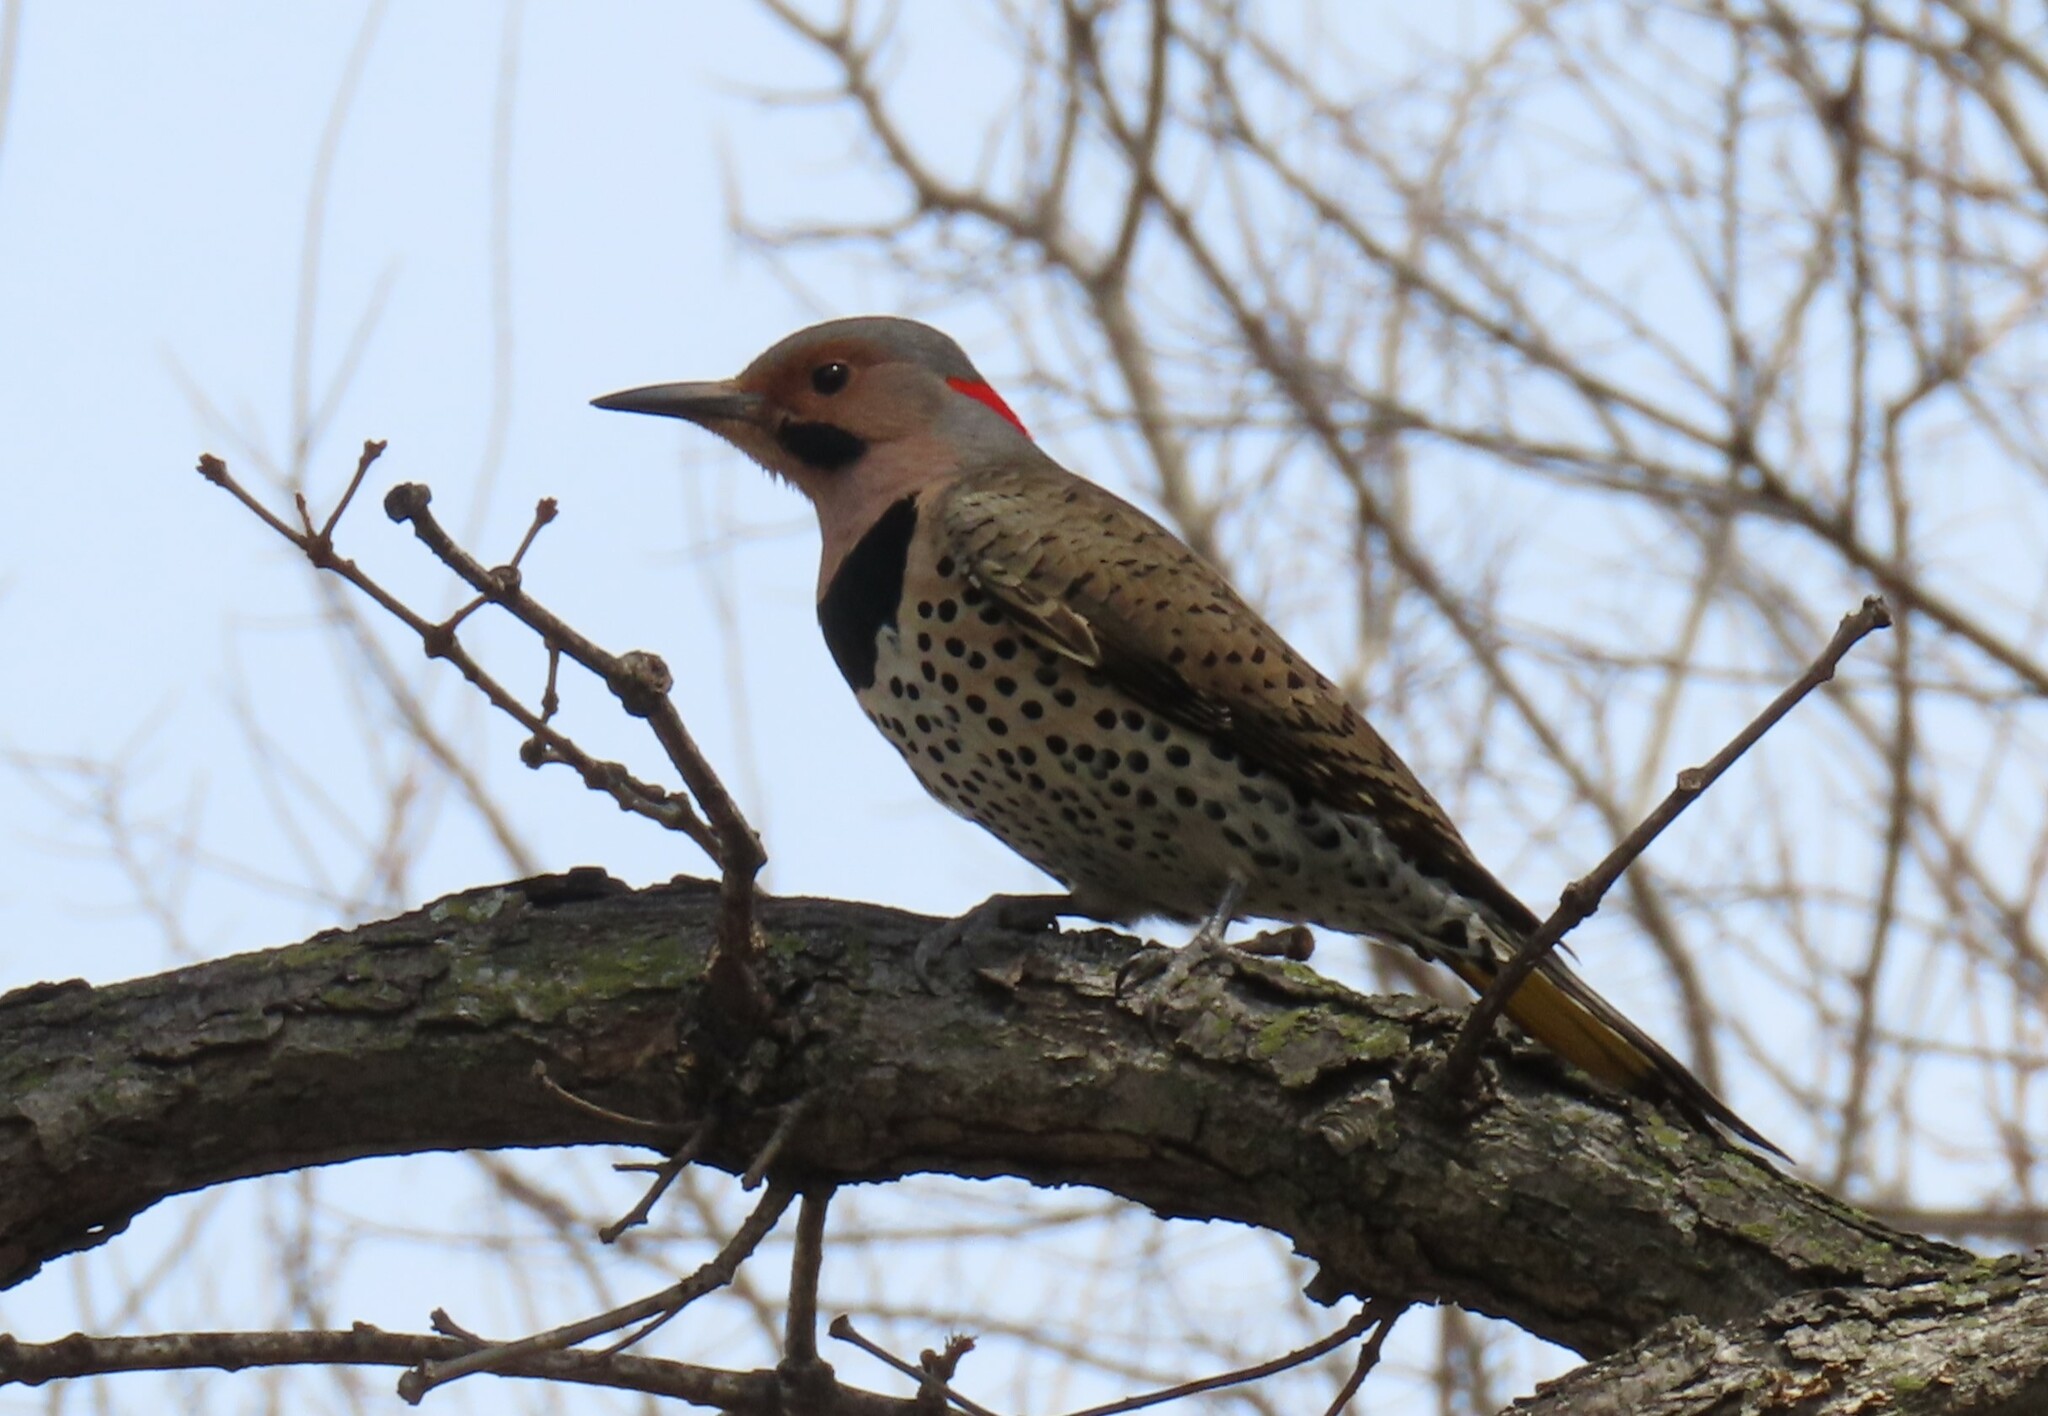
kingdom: Animalia
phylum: Chordata
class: Aves
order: Piciformes
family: Picidae
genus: Colaptes
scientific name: Colaptes auratus
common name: Northern flicker
